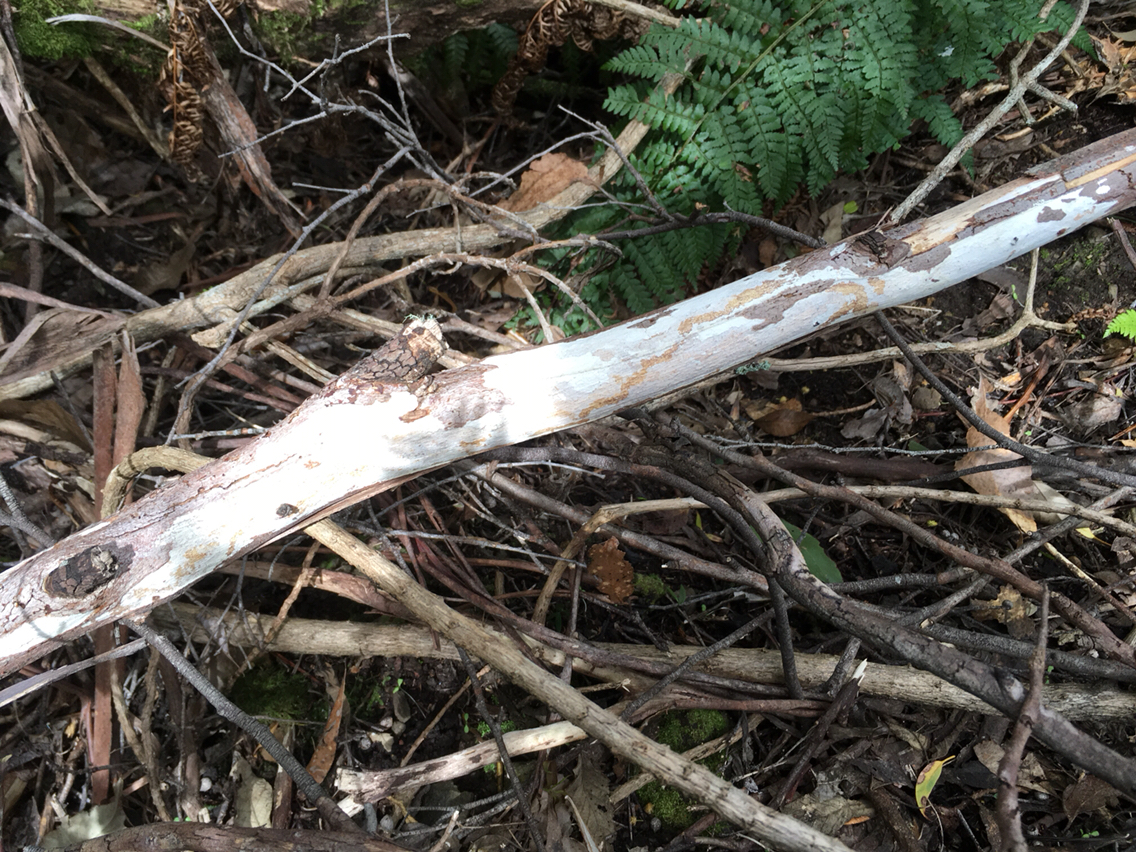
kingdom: Fungi
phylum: Basidiomycota
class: Agaricomycetes
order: Russulales
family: Stereaceae
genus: Aleurodiscus
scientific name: Aleurodiscus sparsus
